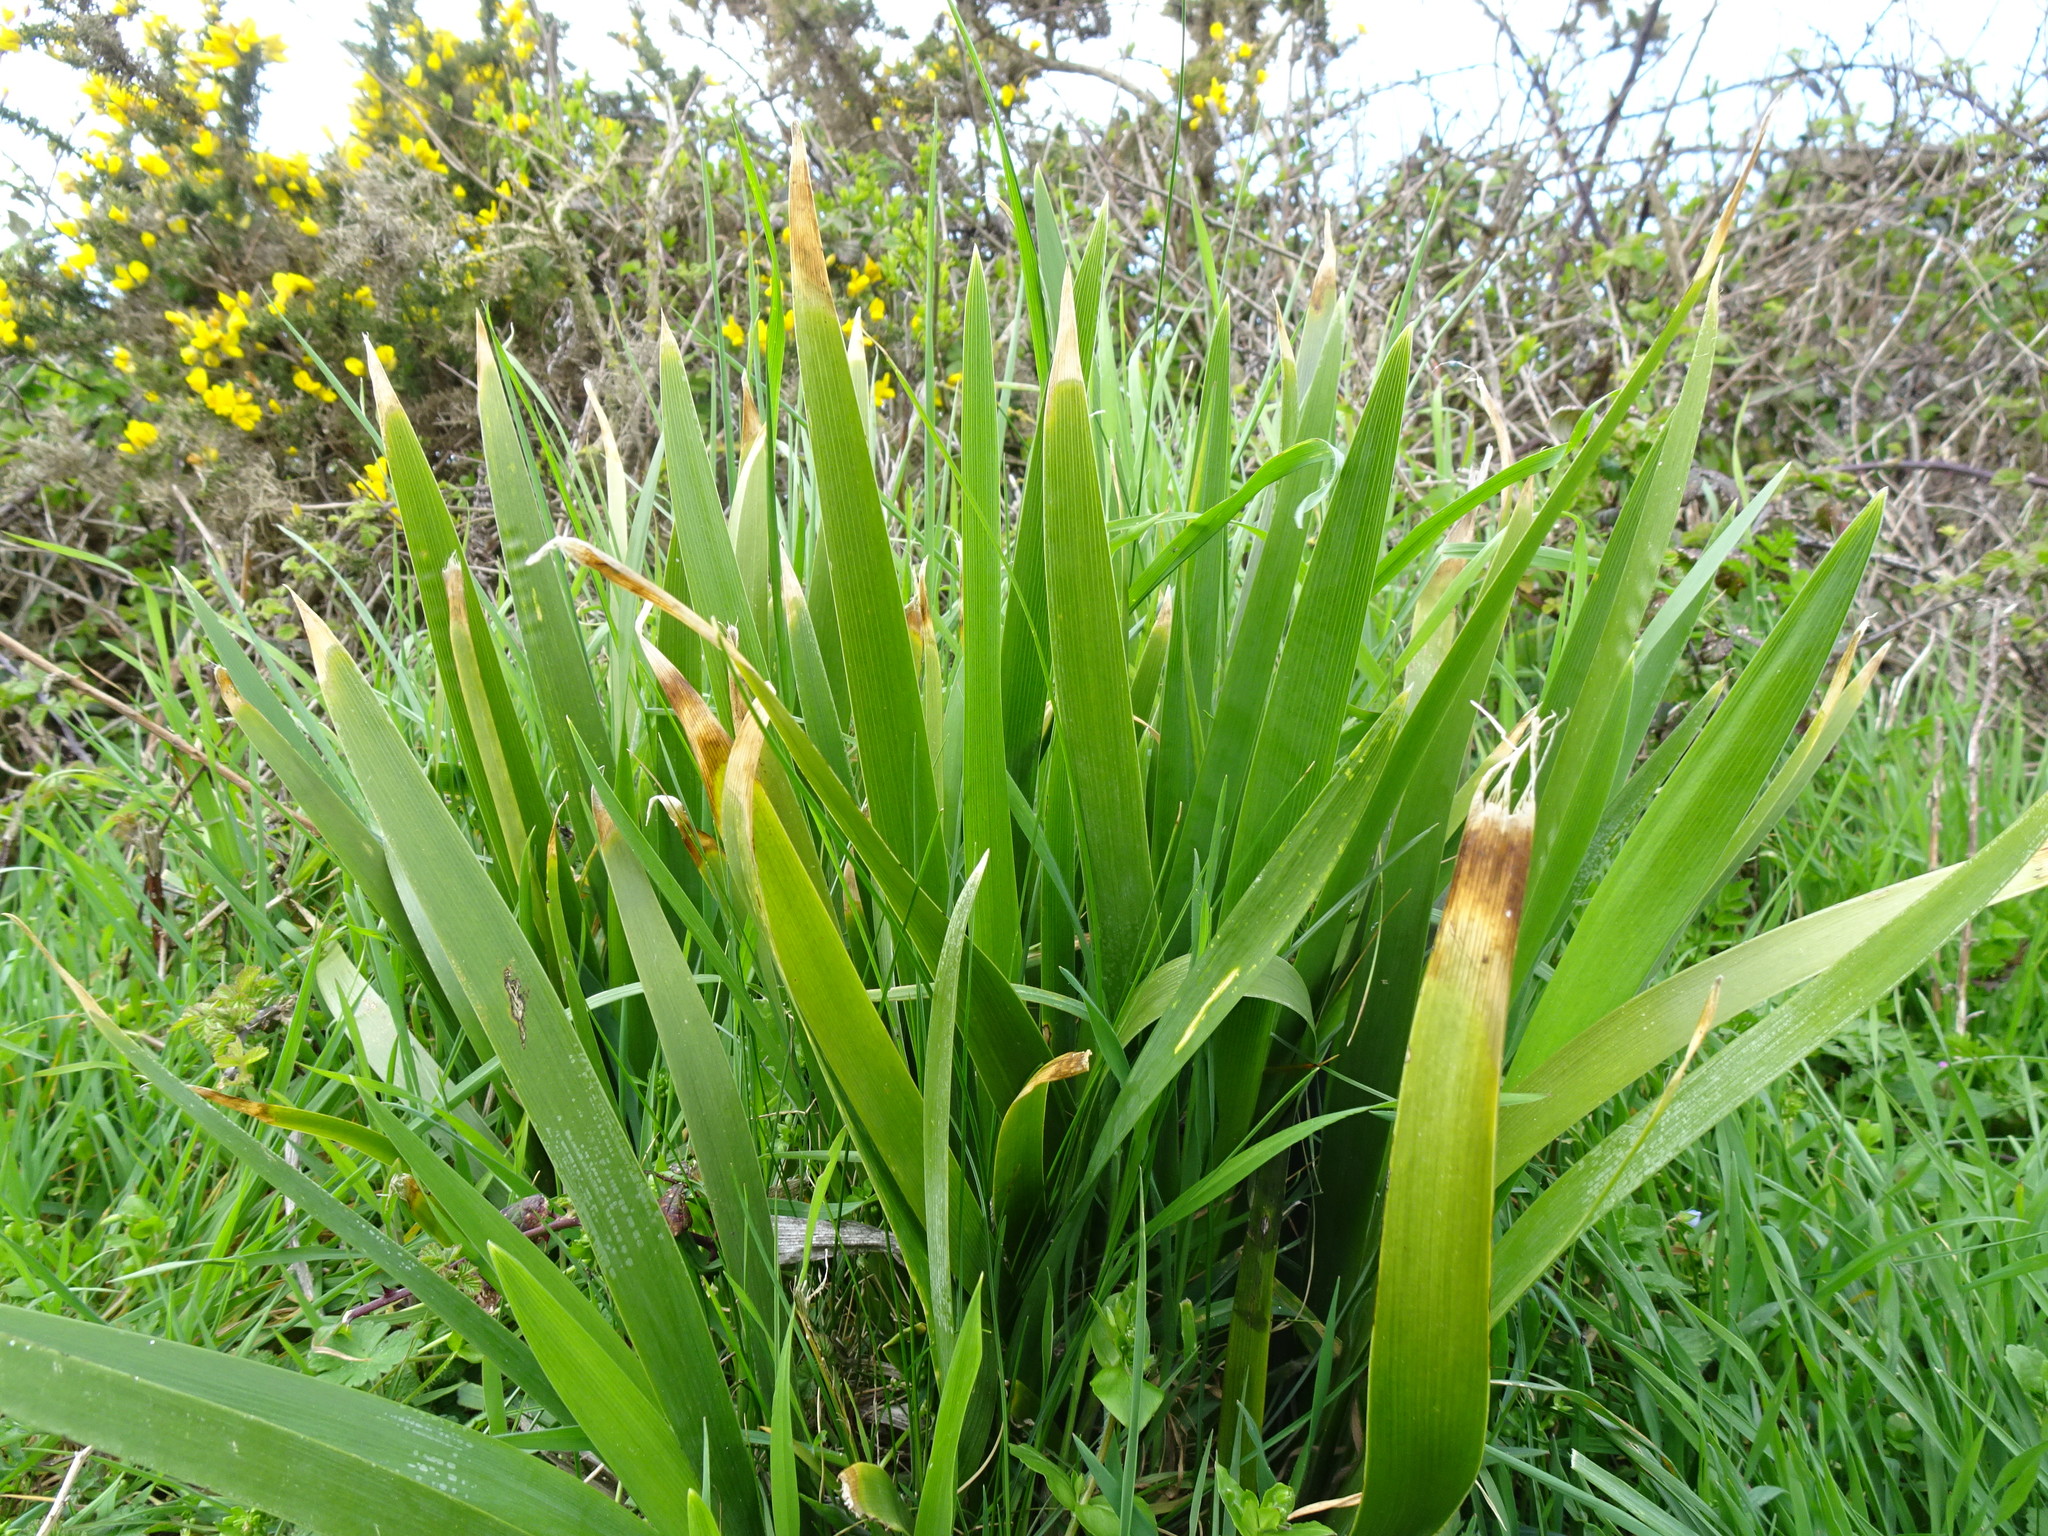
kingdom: Plantae
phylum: Tracheophyta
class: Liliopsida
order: Asparagales
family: Iridaceae
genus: Iris
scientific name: Iris foetidissima
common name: Stinking iris
